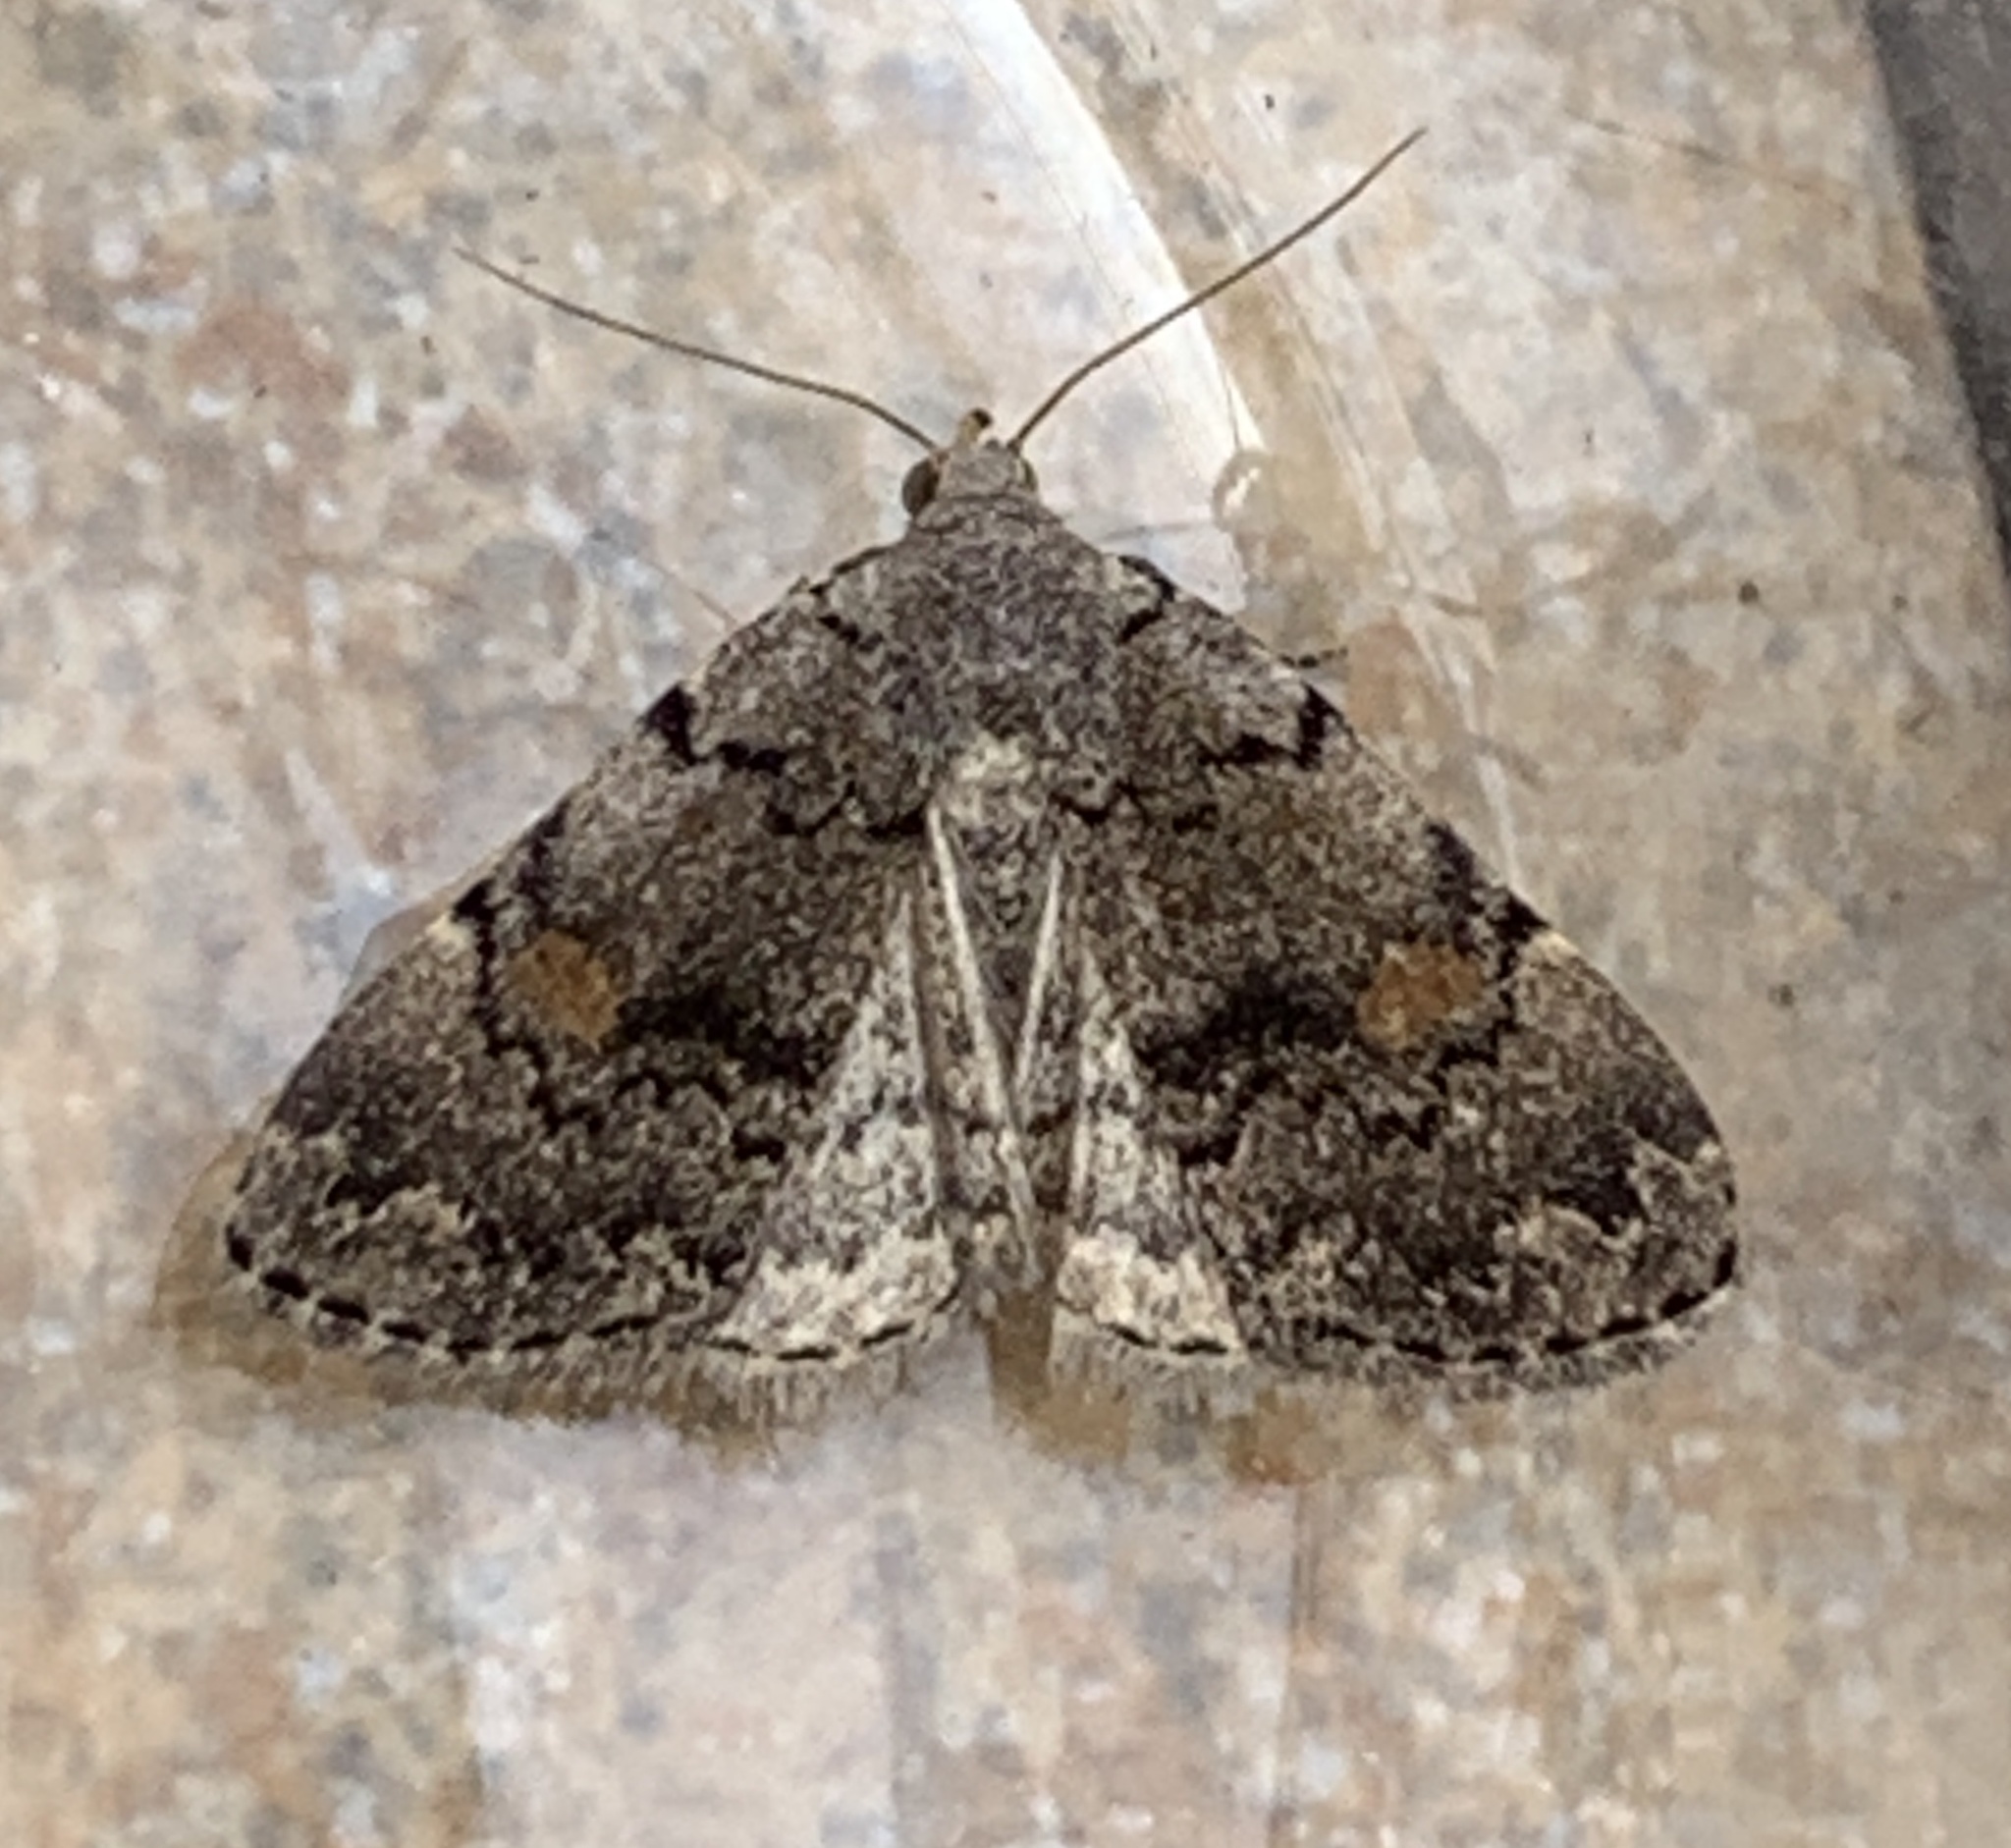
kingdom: Animalia
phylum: Arthropoda
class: Insecta
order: Lepidoptera
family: Erebidae
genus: Idia
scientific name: Idia aemula
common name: Common idia moth
